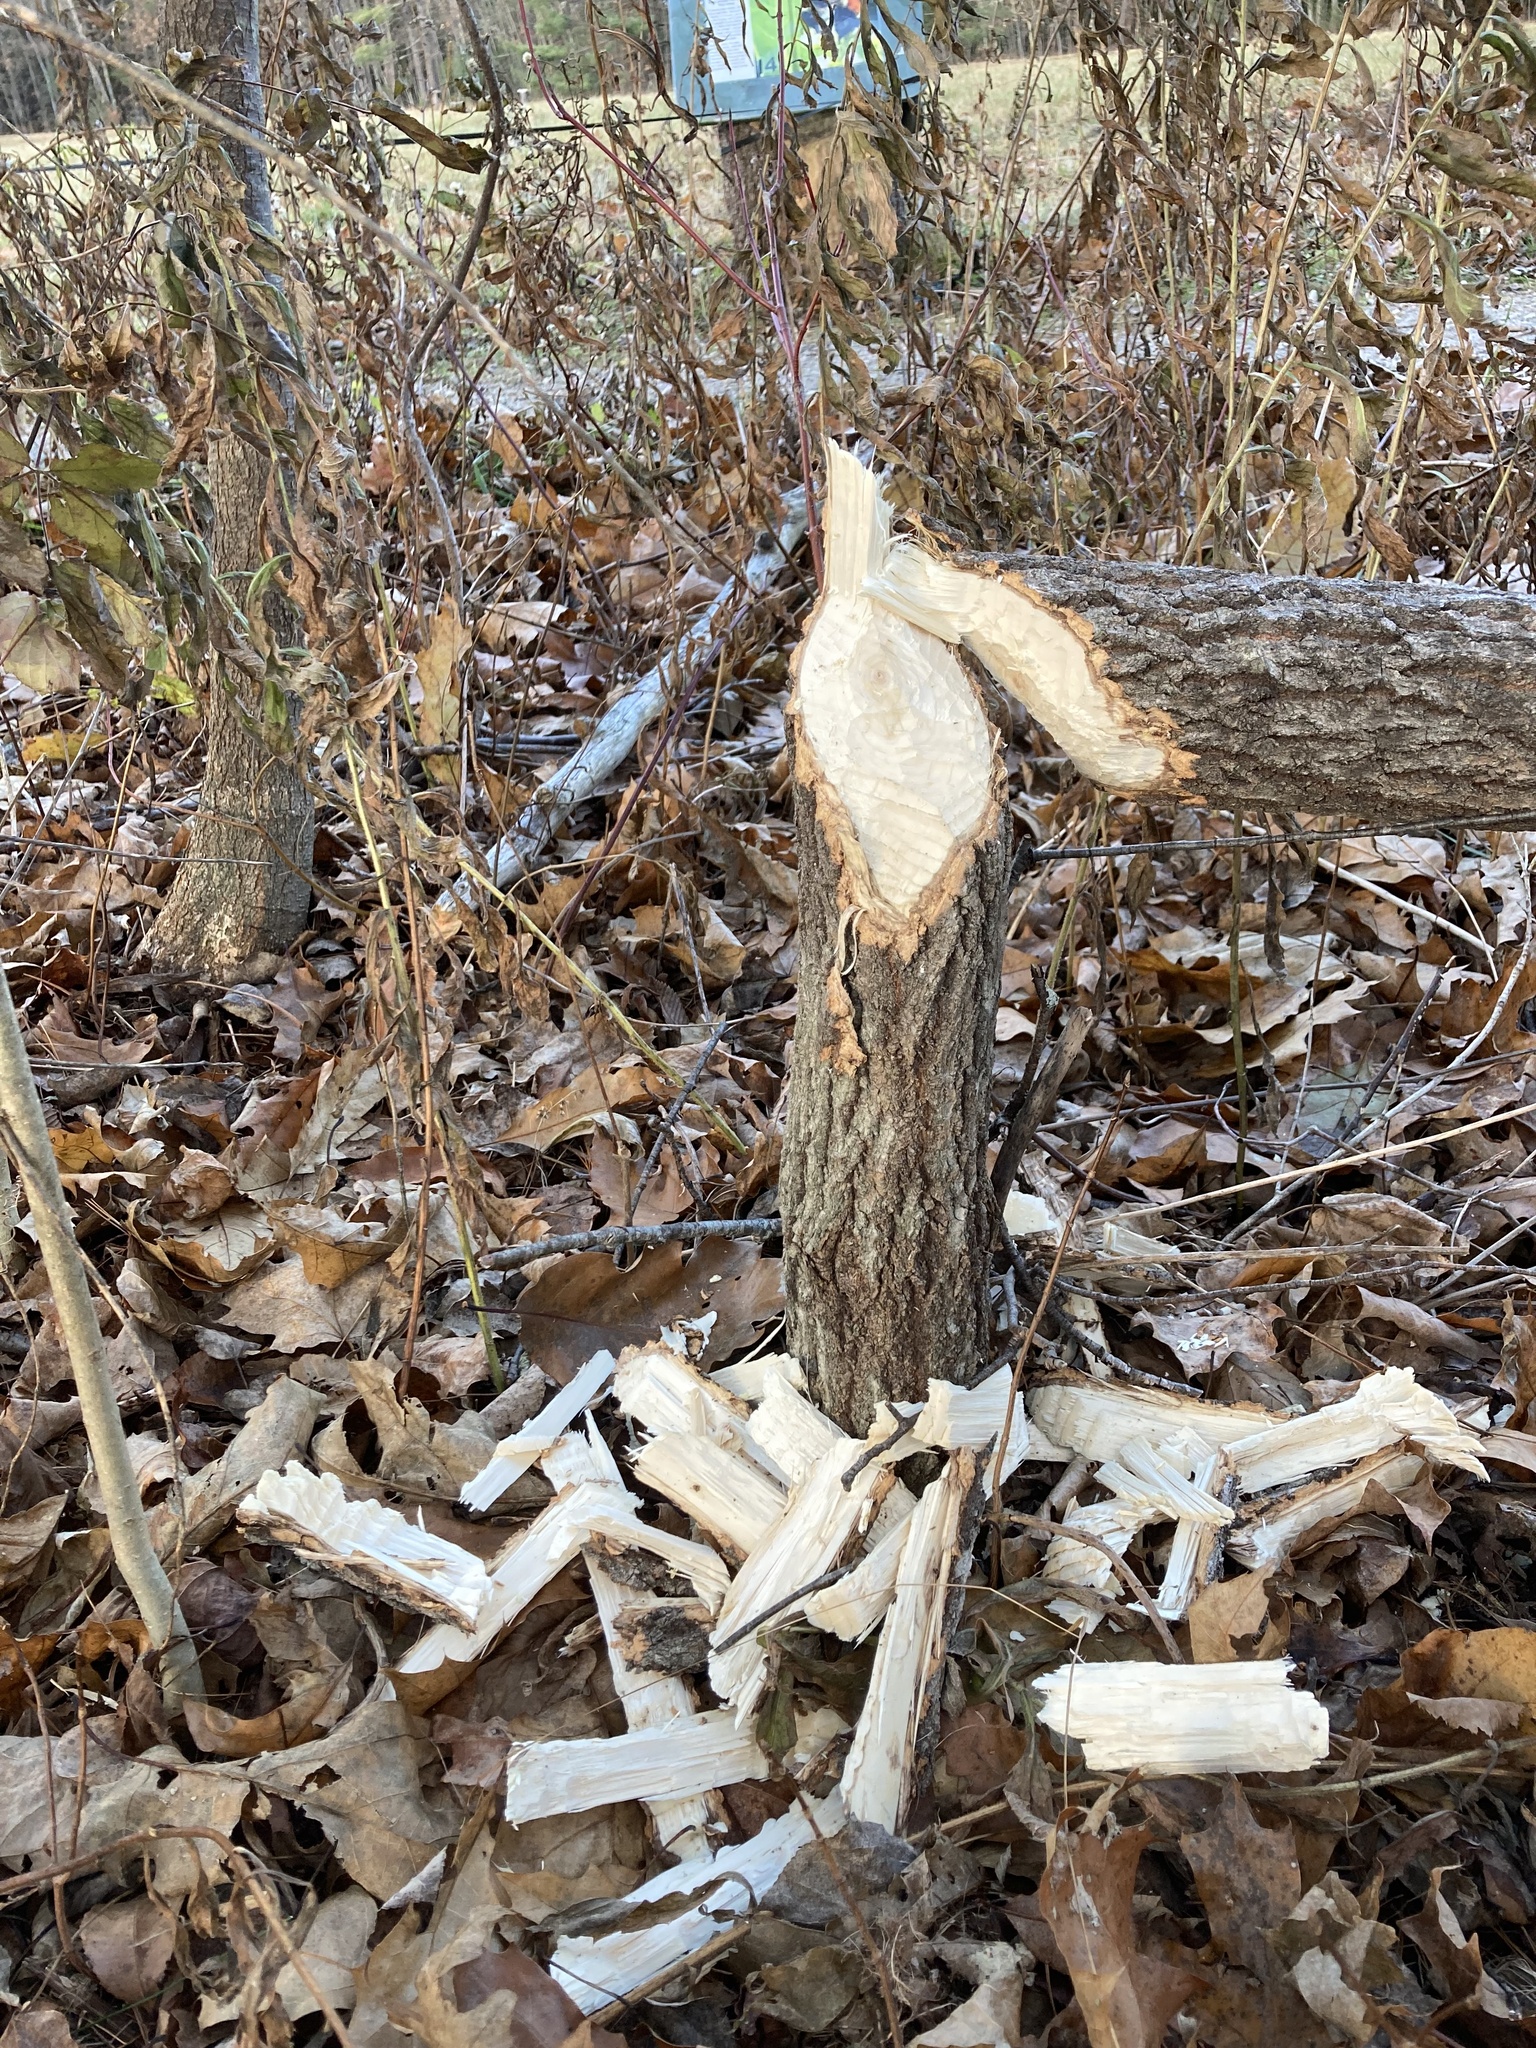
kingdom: Animalia
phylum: Chordata
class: Mammalia
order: Rodentia
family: Castoridae
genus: Castor
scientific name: Castor canadensis
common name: American beaver
